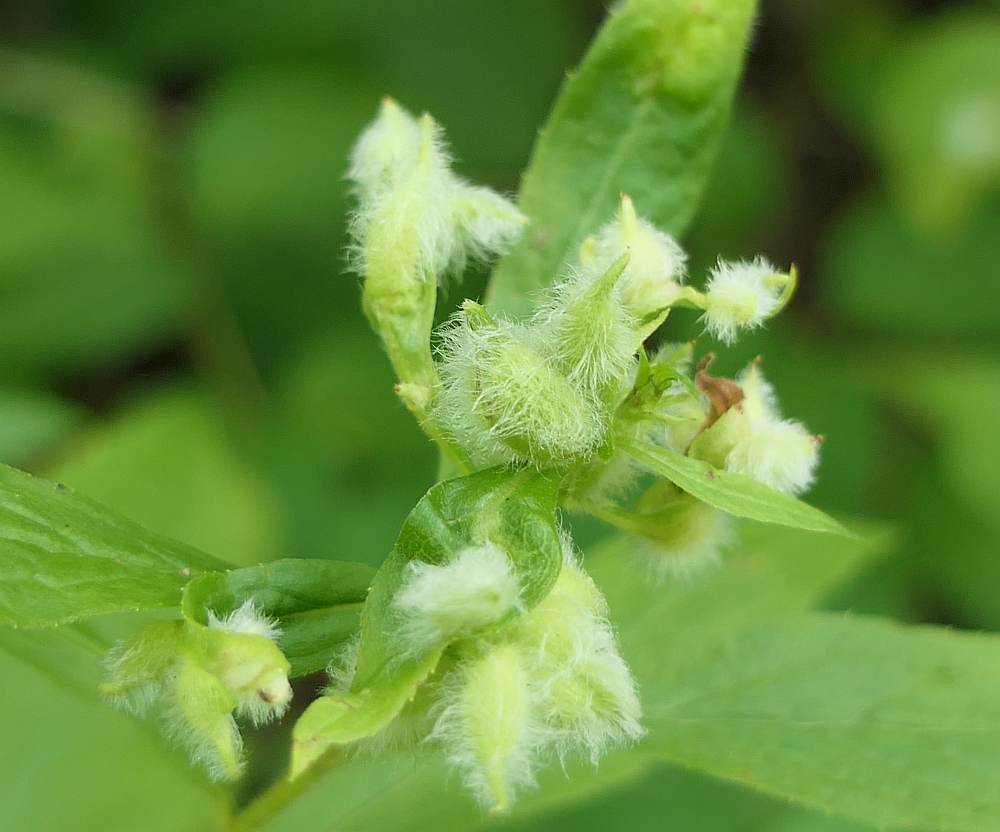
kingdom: Animalia
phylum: Arthropoda
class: Insecta
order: Diptera
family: Cecidomyiidae
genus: Rhopalomyia
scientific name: Rhopalomyia clarkei
